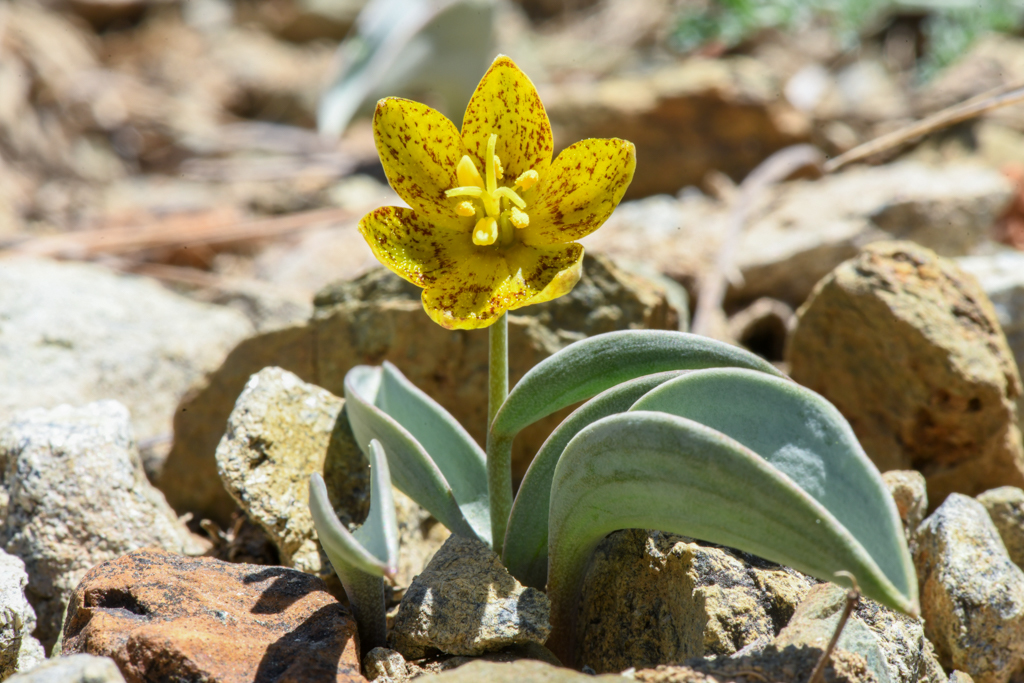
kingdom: Plantae
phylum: Tracheophyta
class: Liliopsida
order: Liliales
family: Liliaceae
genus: Fritillaria
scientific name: Fritillaria glauca
